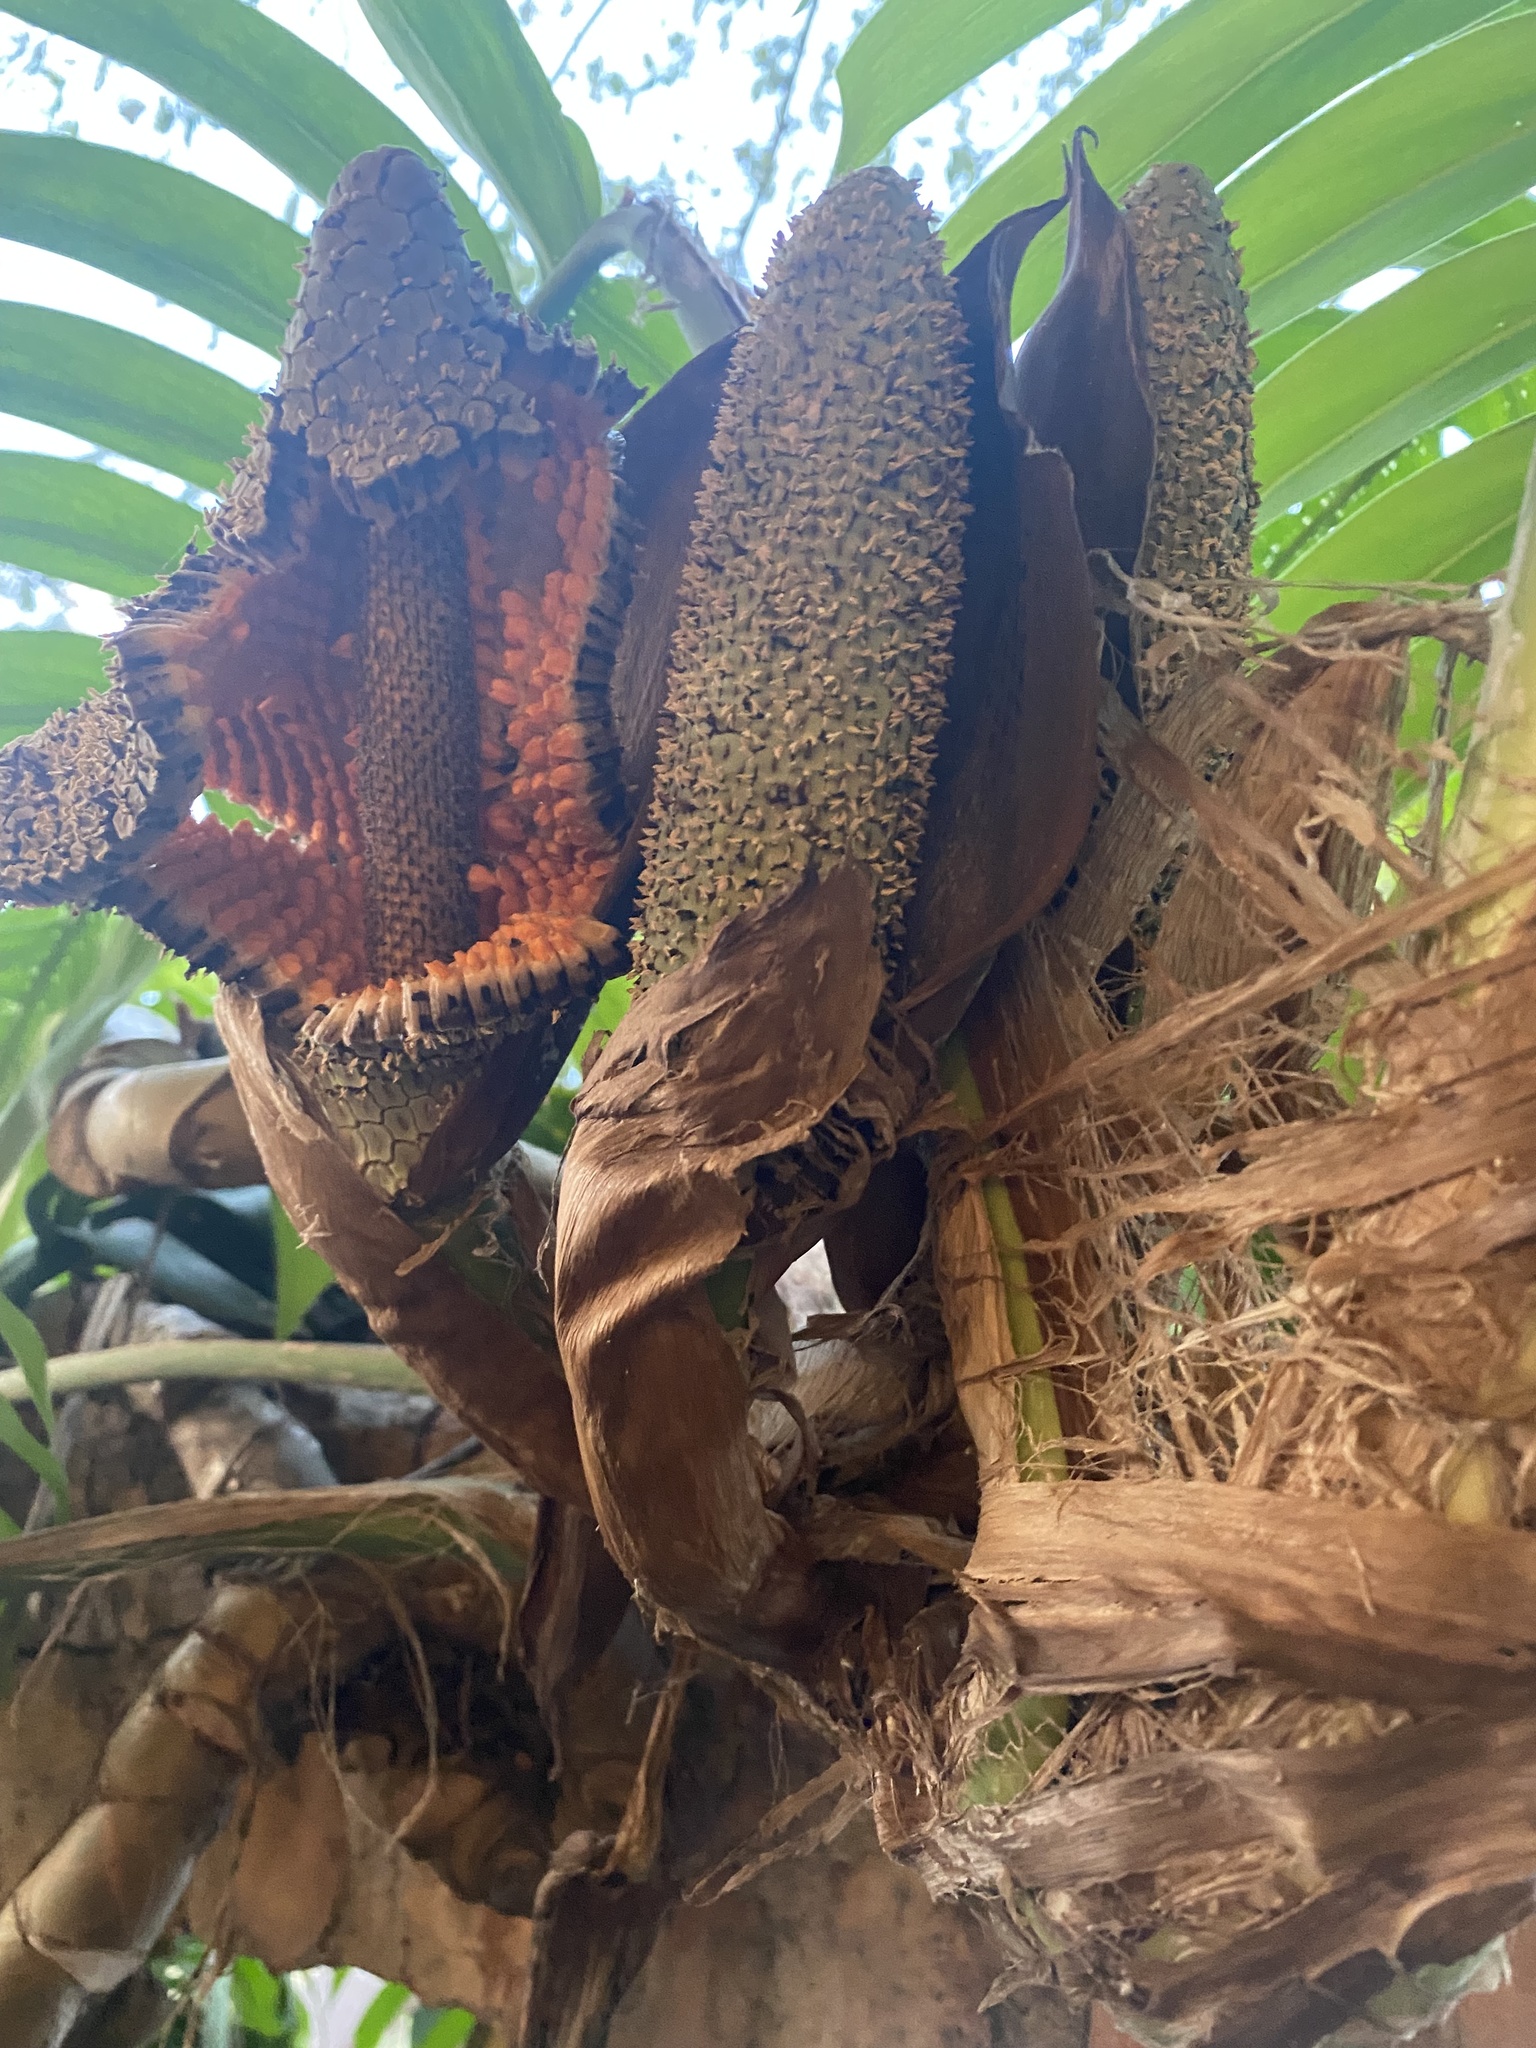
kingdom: Plantae
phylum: Tracheophyta
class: Liliopsida
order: Alismatales
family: Araceae
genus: Epipremnum
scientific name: Epipremnum pinnatum
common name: Centipede tongavine
